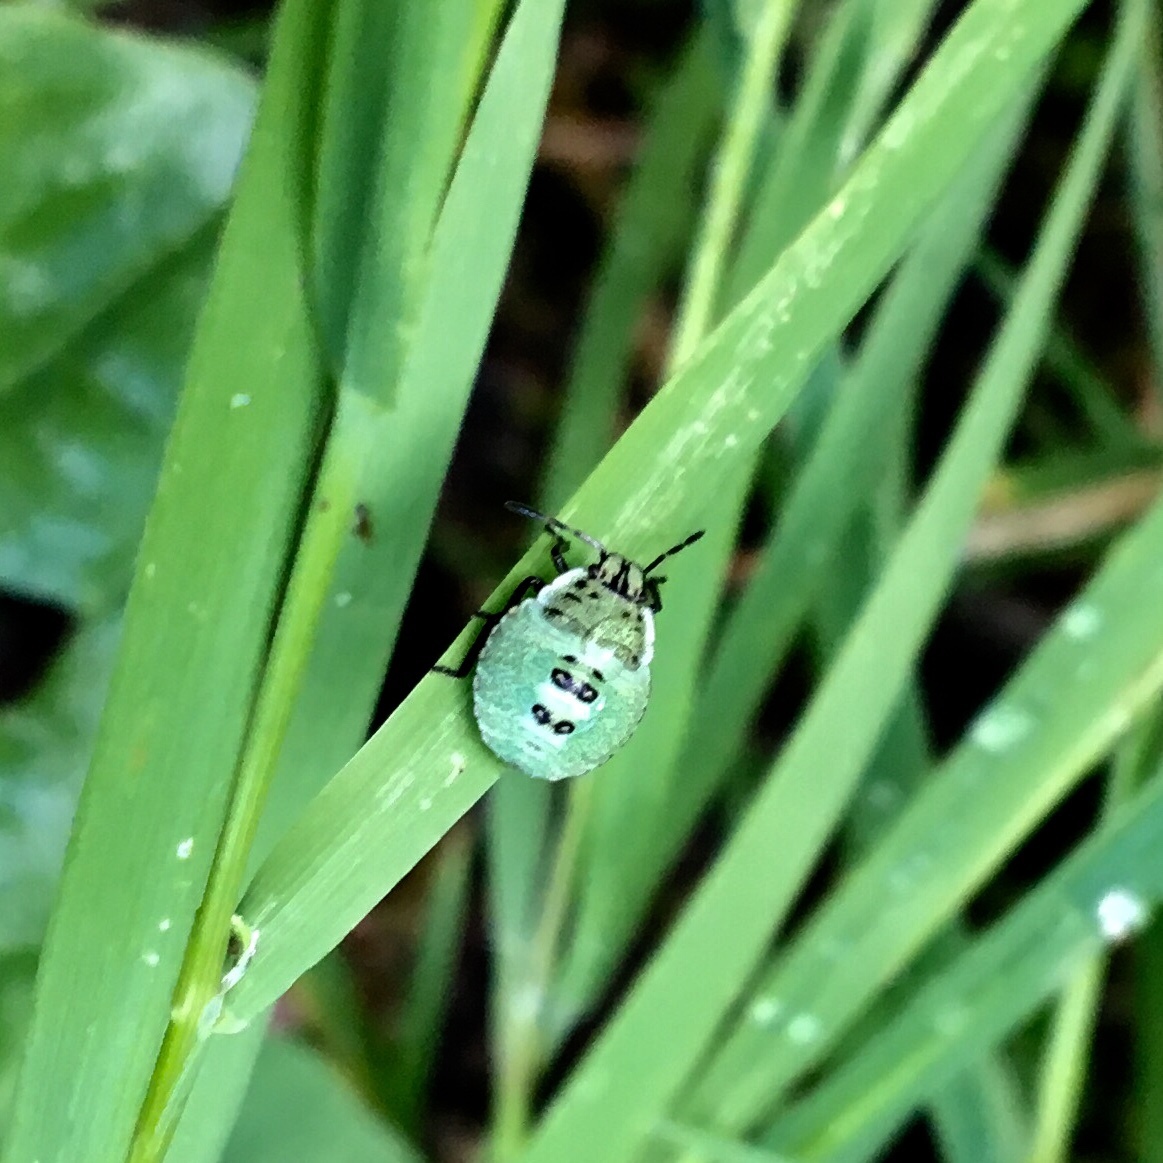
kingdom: Animalia
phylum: Arthropoda
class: Insecta
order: Hemiptera
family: Pentatomidae
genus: Palomena
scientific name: Palomena prasina
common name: Green shieldbug
